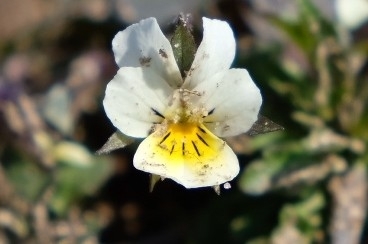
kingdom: Plantae
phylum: Tracheophyta
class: Magnoliopsida
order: Malpighiales
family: Violaceae
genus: Viola
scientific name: Viola arvensis
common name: Field pansy
